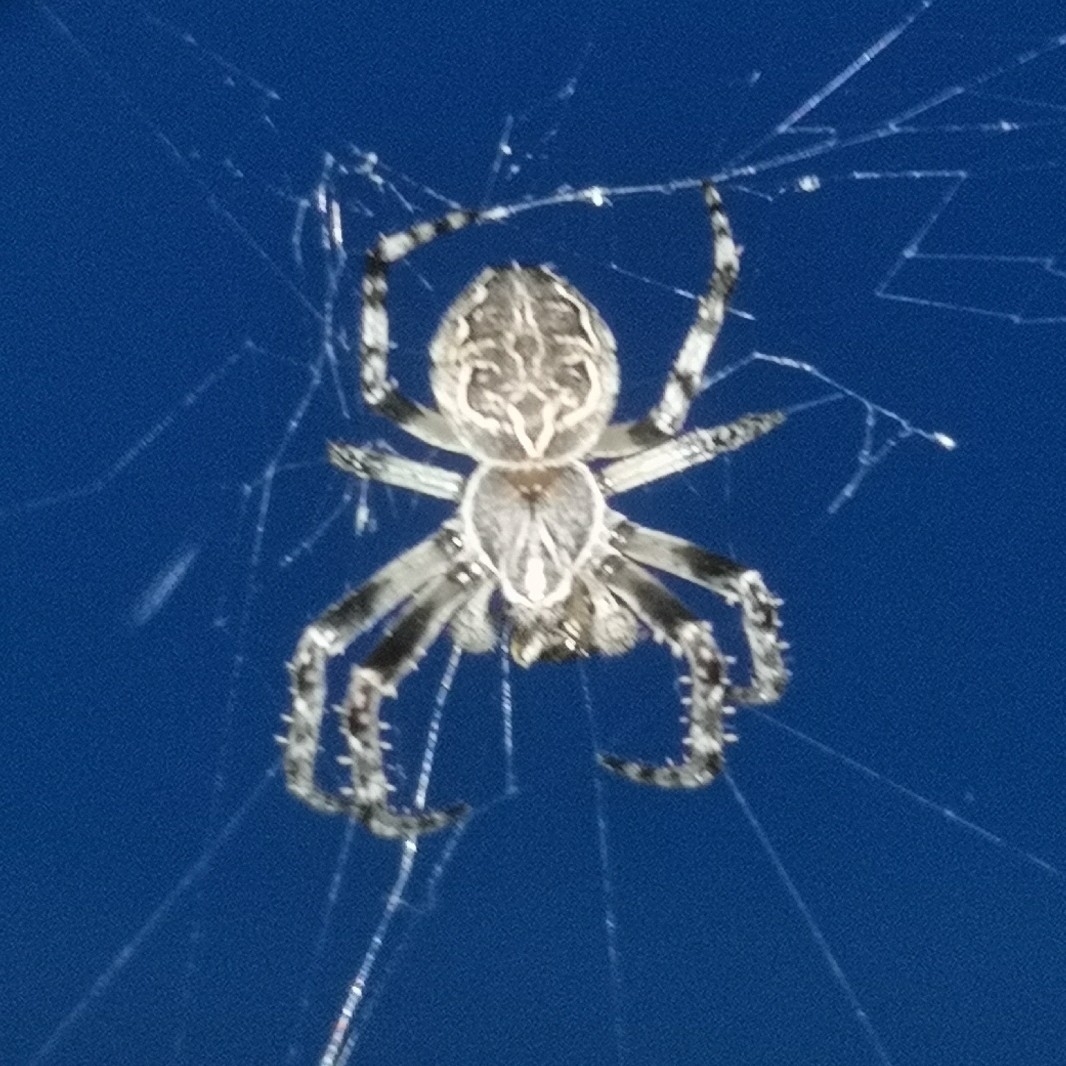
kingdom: Animalia
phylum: Arthropoda
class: Arachnida
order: Araneae
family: Araneidae
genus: Larinioides
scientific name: Larinioides sclopetarius
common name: Bridge orbweaver
